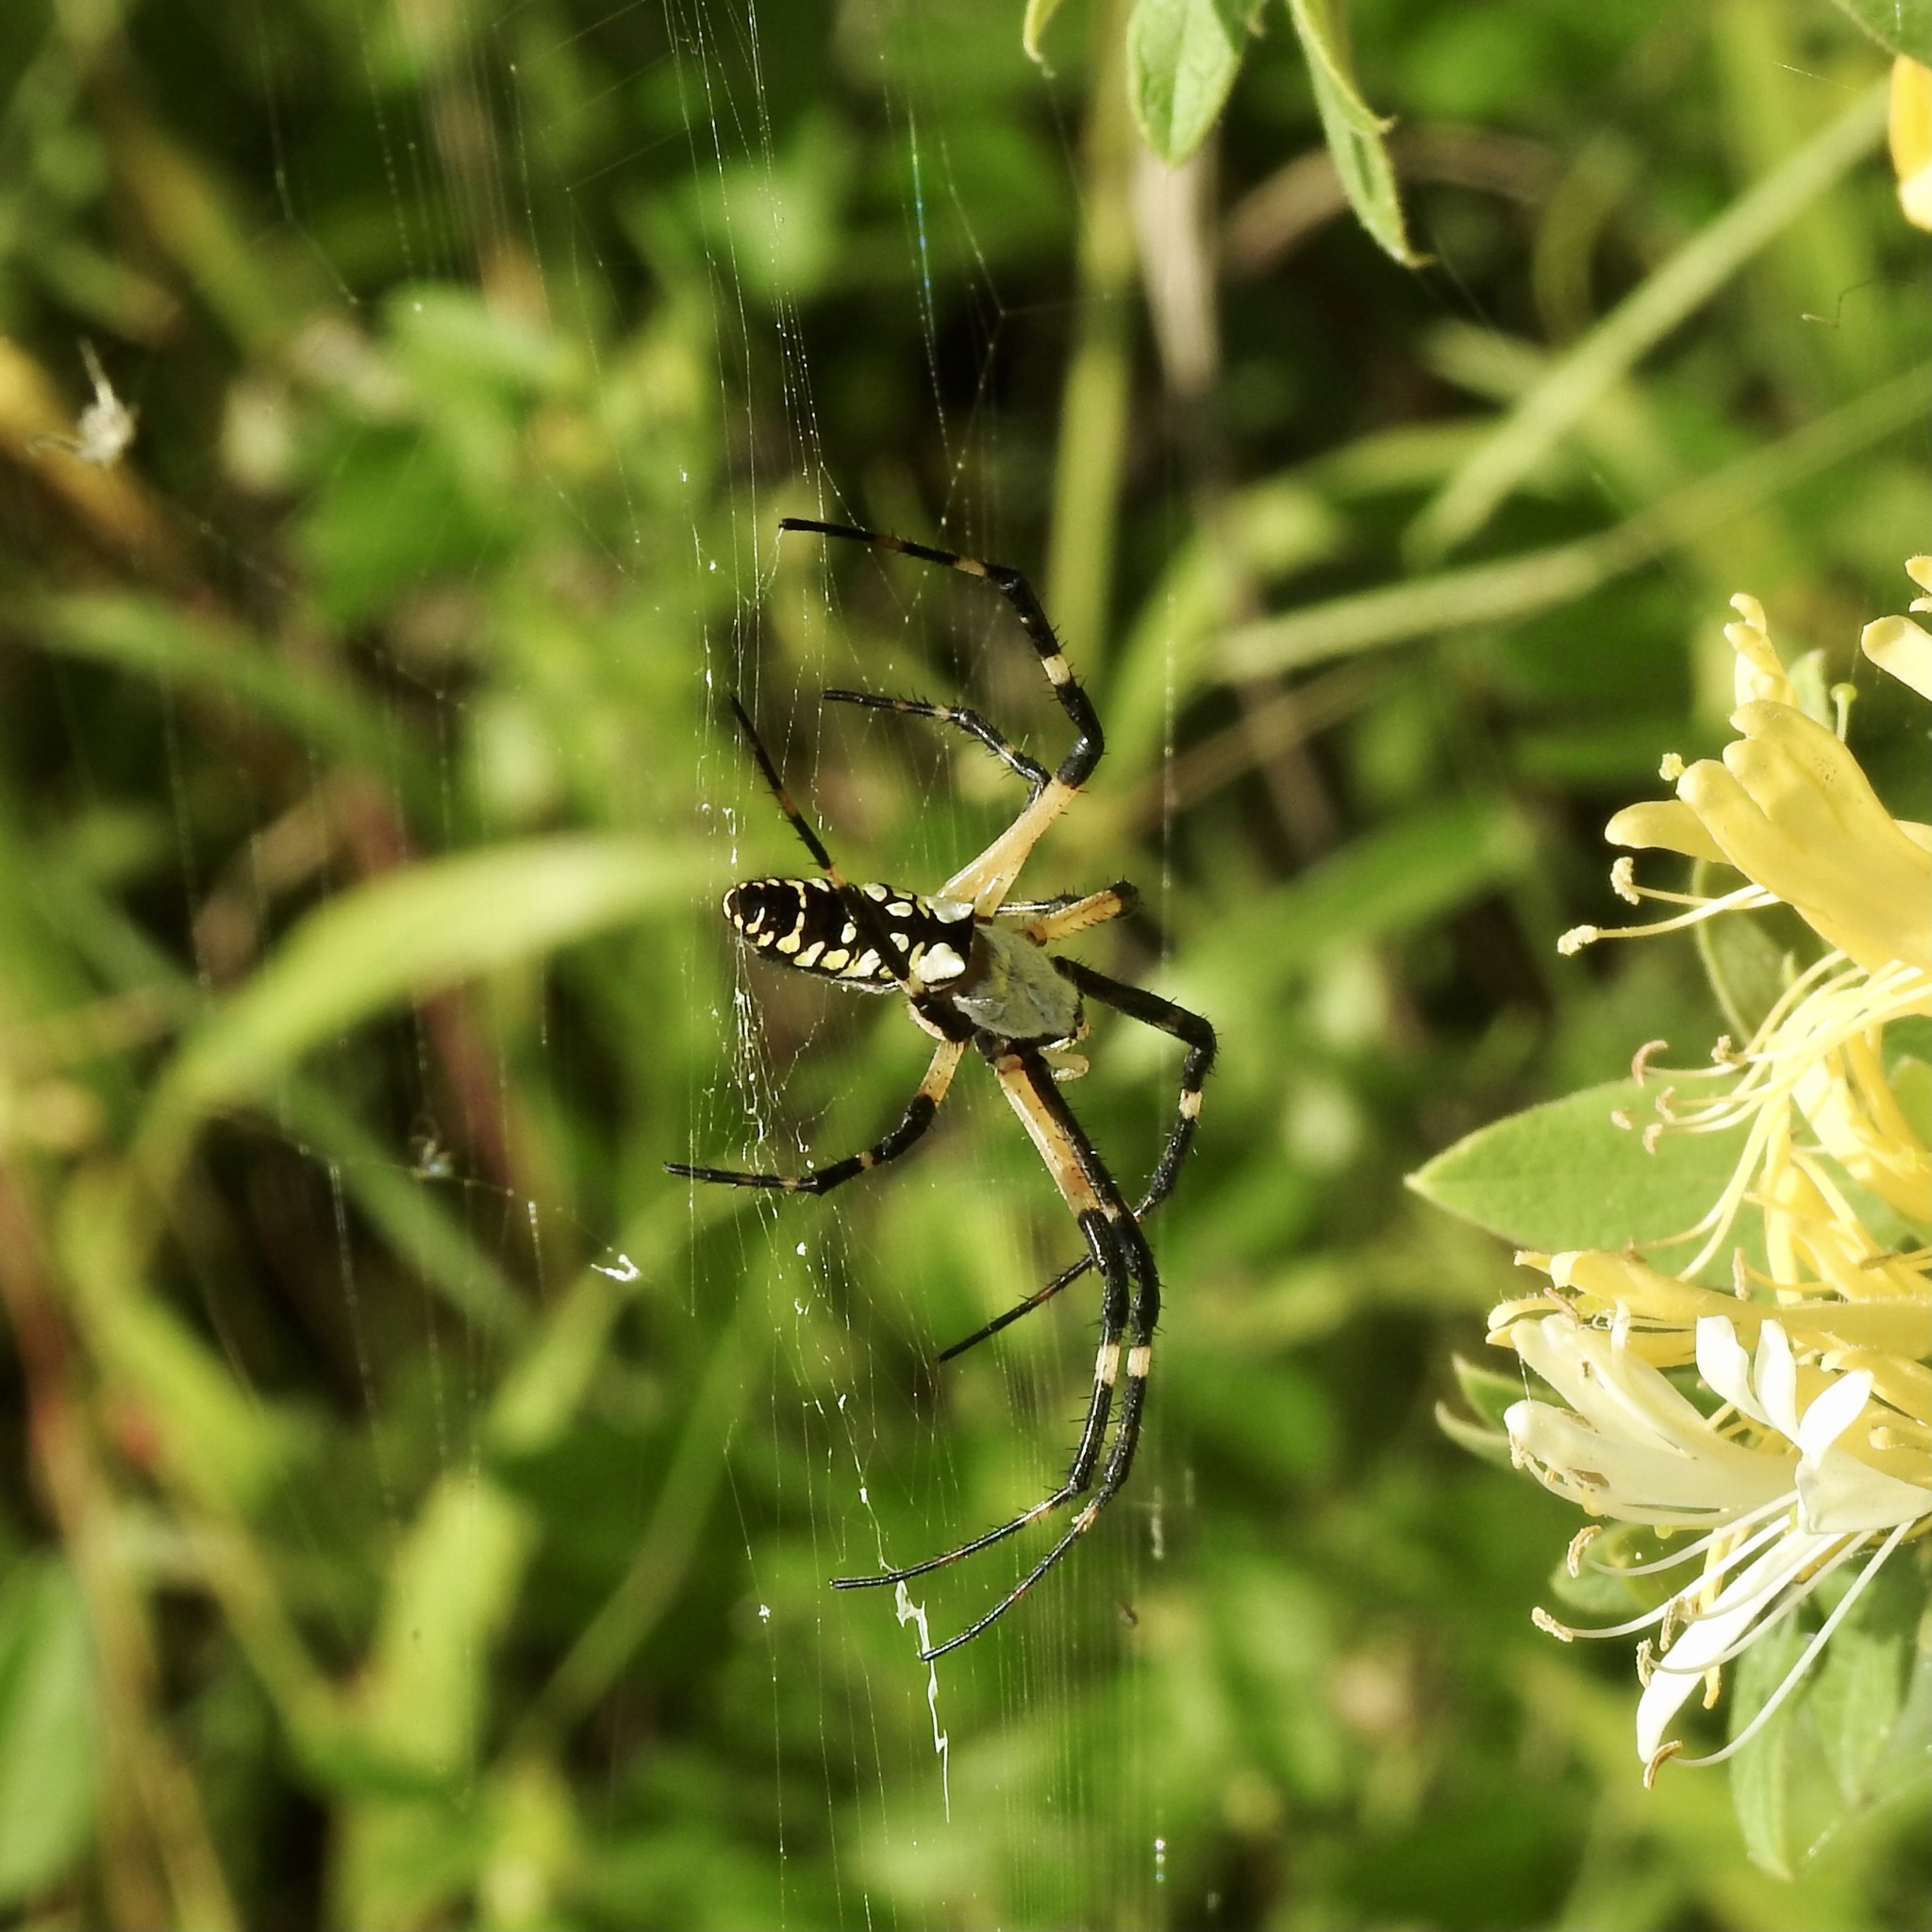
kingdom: Animalia
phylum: Arthropoda
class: Arachnida
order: Araneae
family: Araneidae
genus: Argiope
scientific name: Argiope aurantia
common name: Orb weavers
